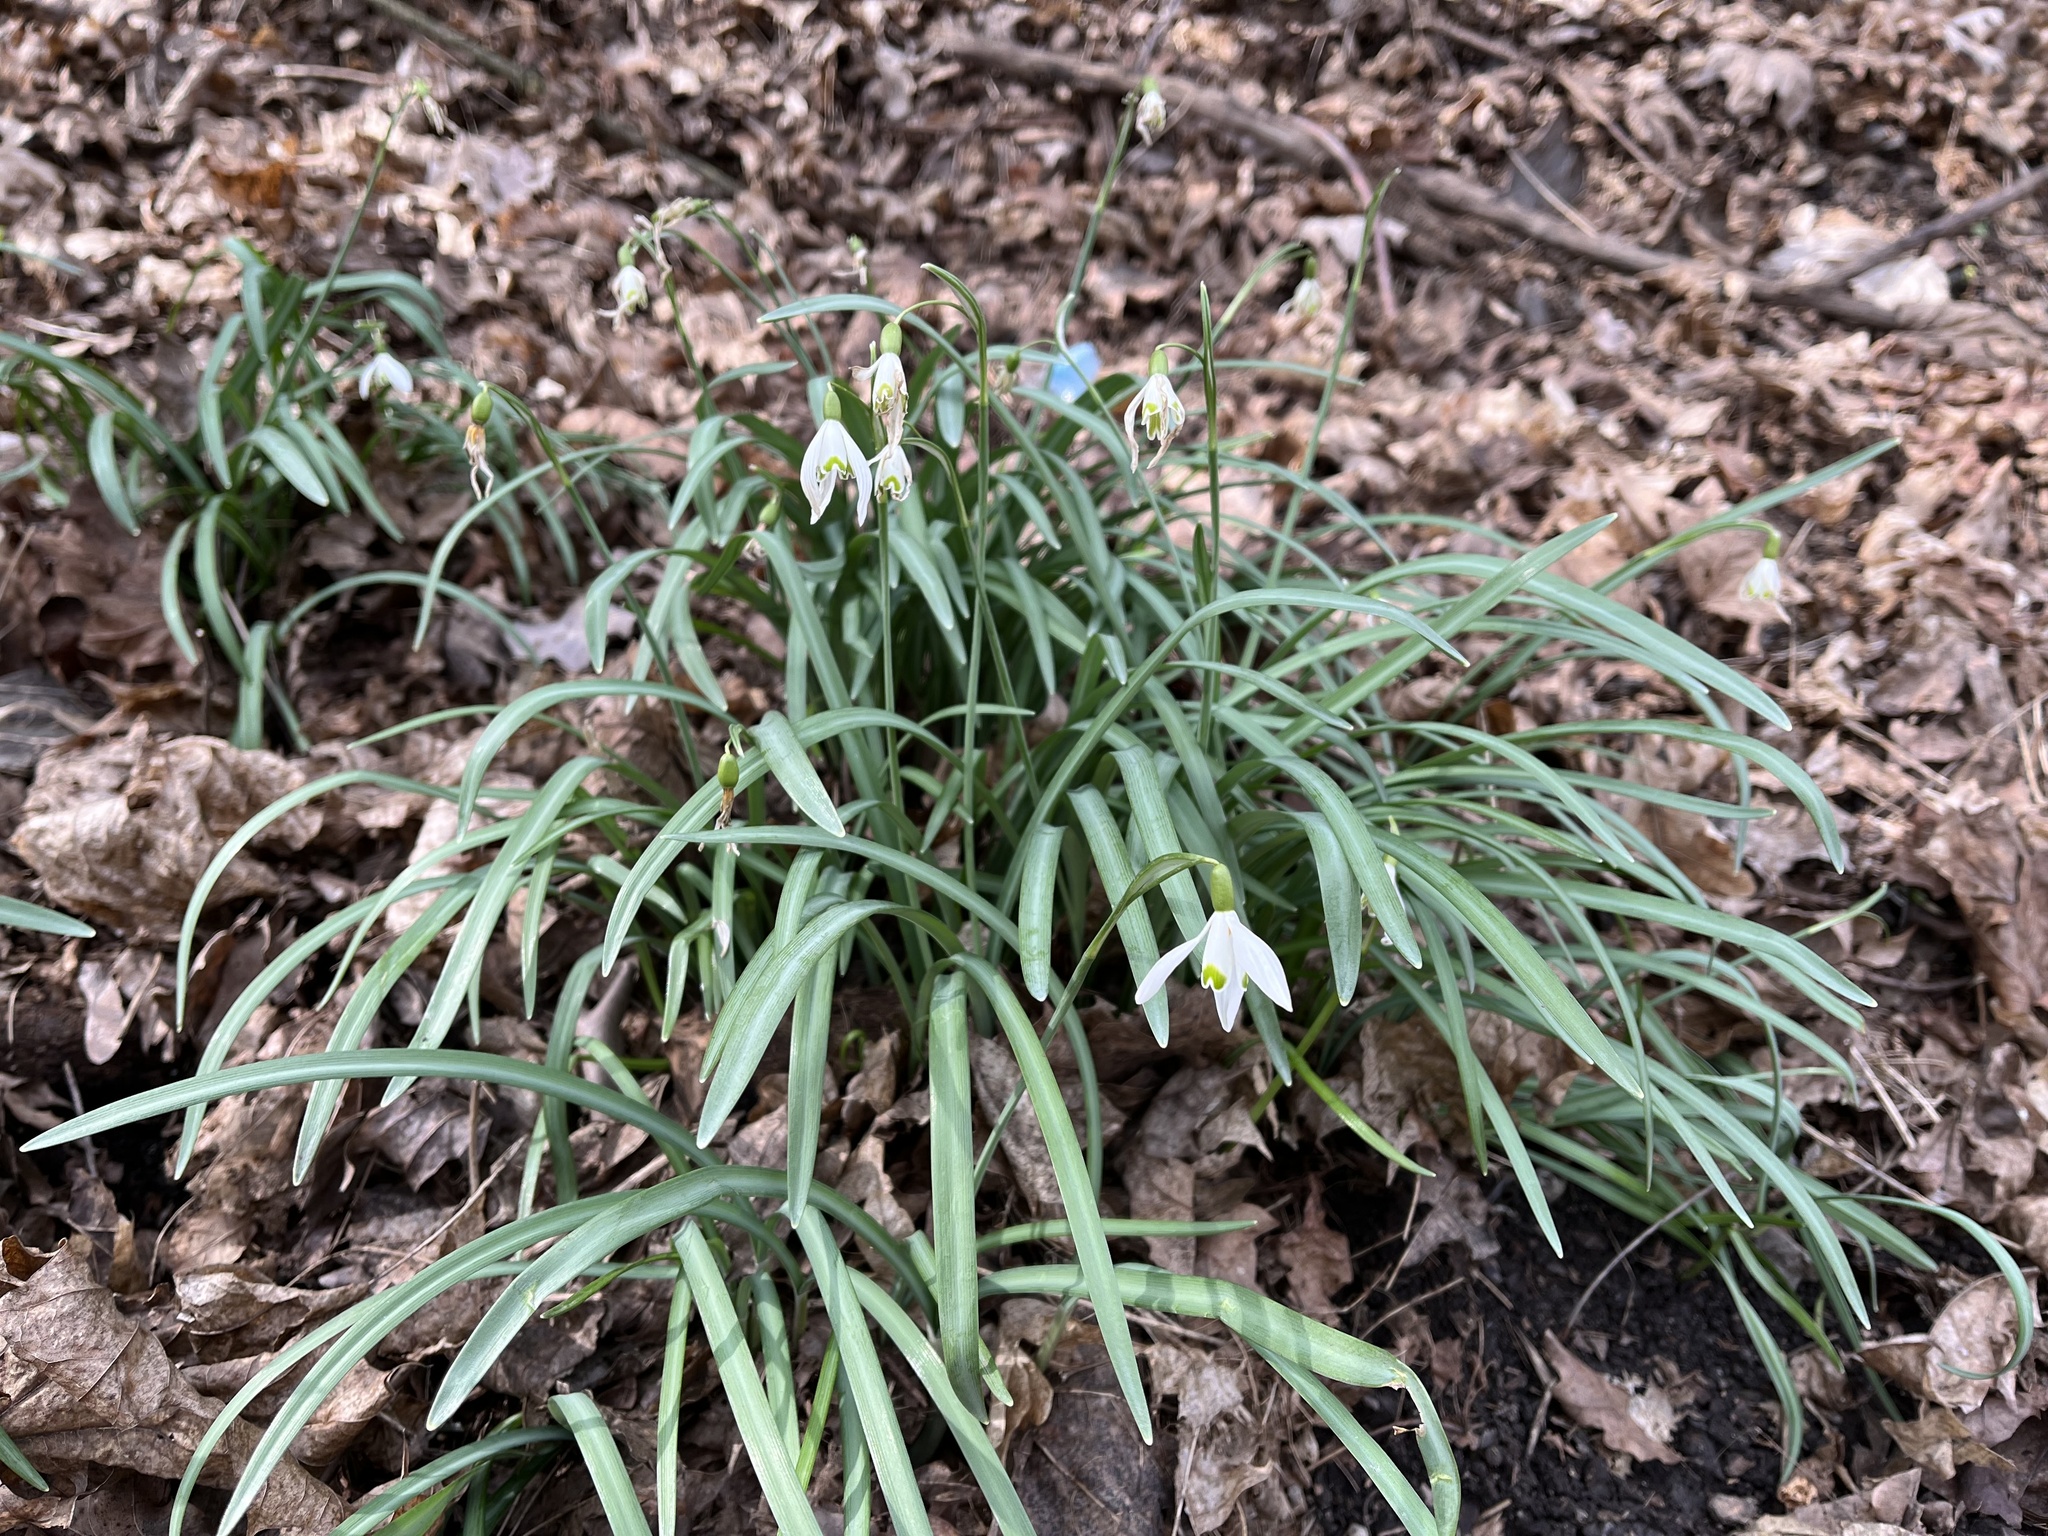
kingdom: Plantae
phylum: Tracheophyta
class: Liliopsida
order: Asparagales
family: Amaryllidaceae
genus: Galanthus
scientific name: Galanthus nivalis
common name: Snowdrop
